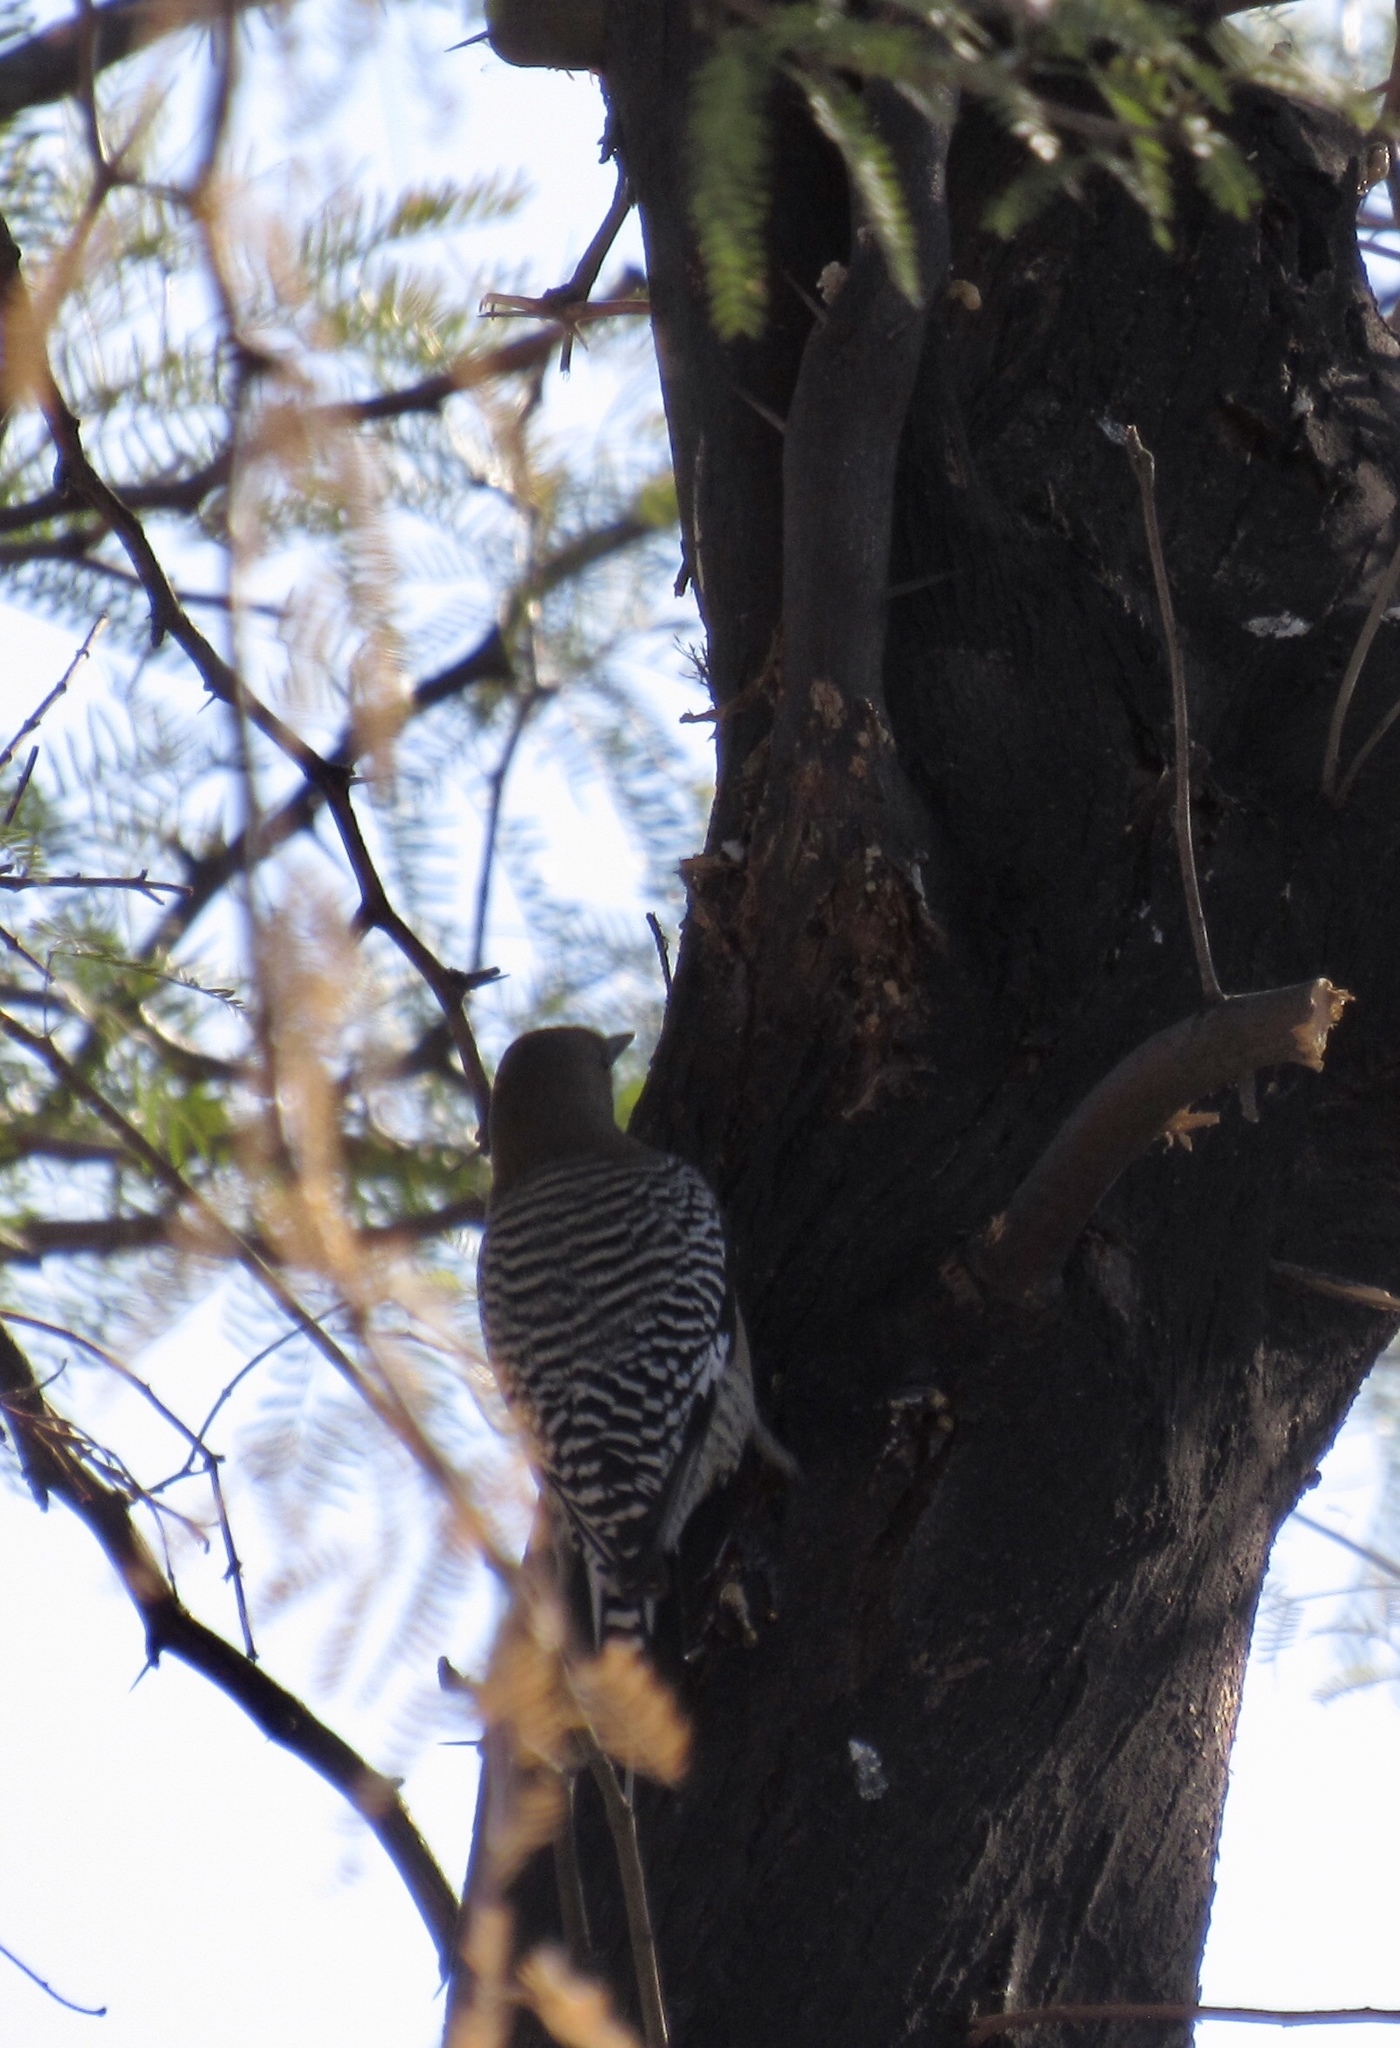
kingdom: Animalia
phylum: Chordata
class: Aves
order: Piciformes
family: Picidae
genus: Melanerpes
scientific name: Melanerpes uropygialis
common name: Gila woodpecker
